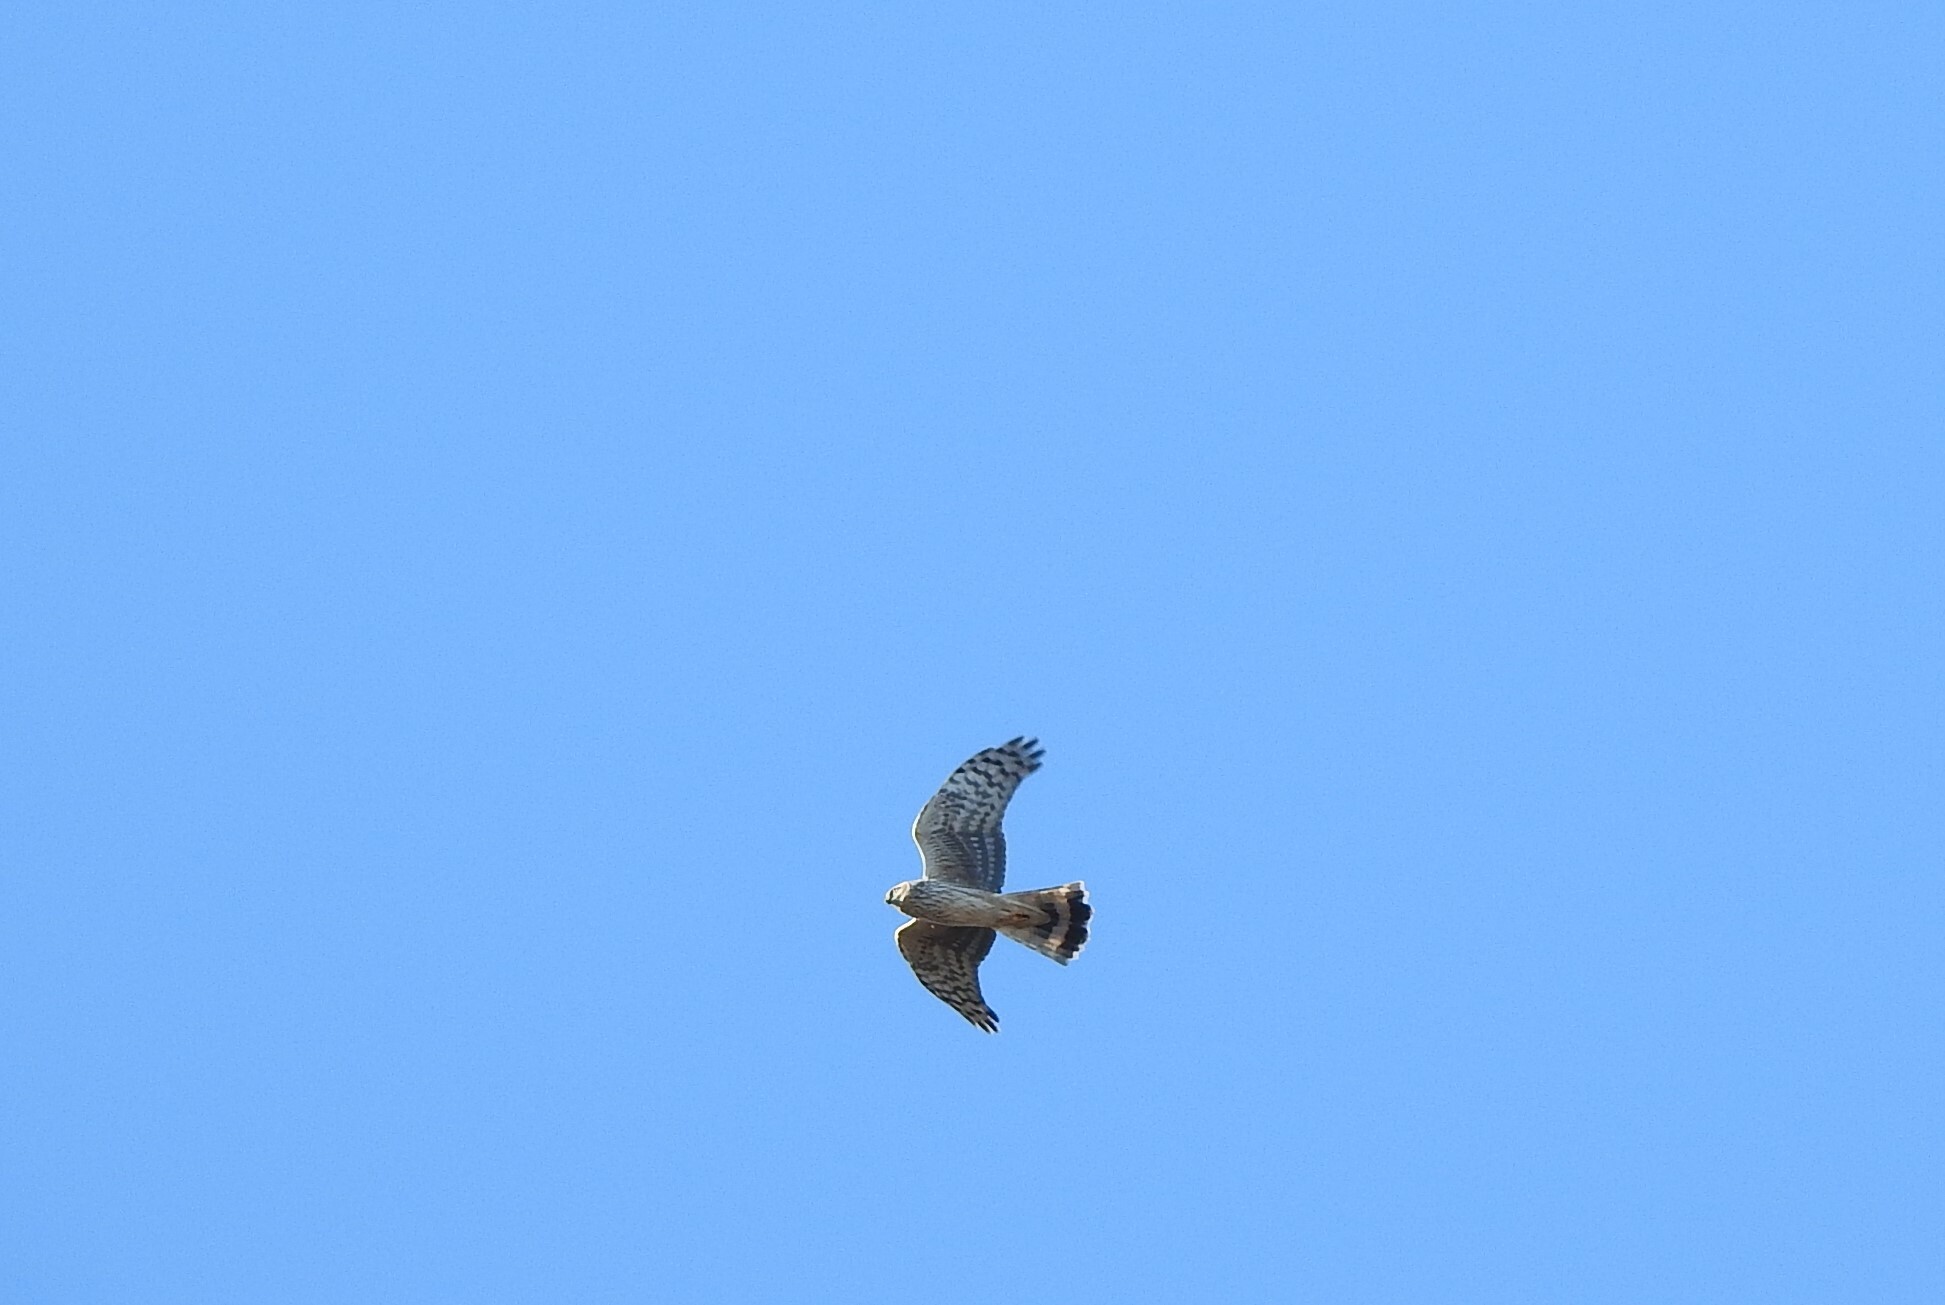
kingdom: Animalia
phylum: Chordata
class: Aves
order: Accipitriformes
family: Accipitridae
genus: Circus
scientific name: Circus cyaneus
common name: Hen harrier
